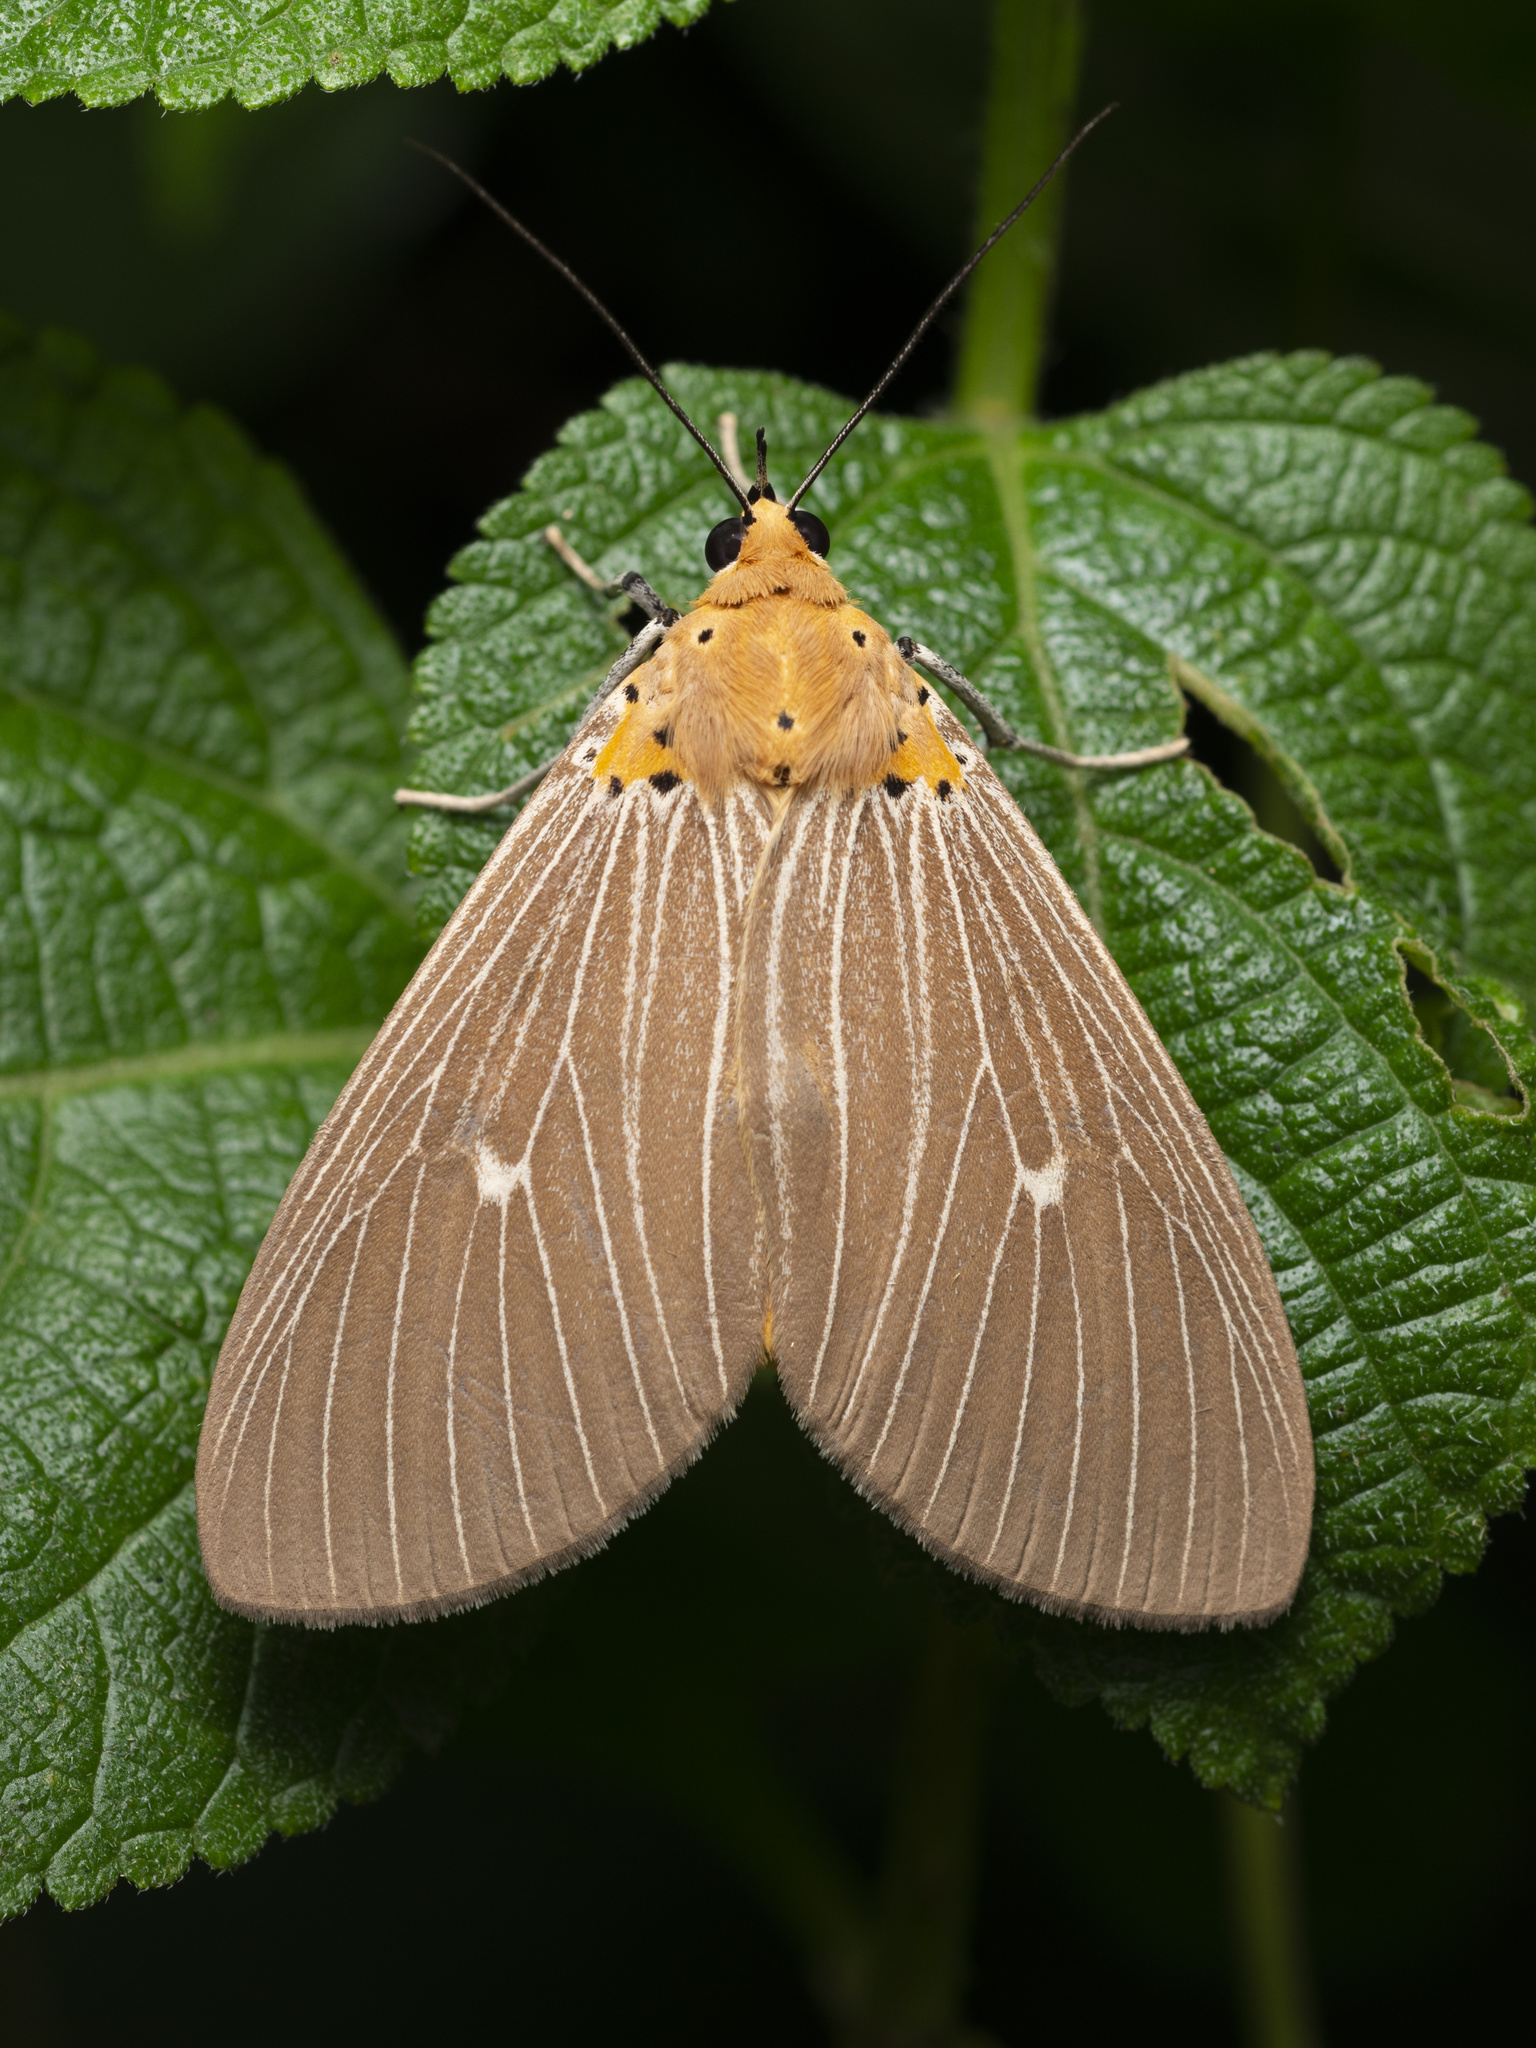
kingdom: Animalia
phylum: Arthropoda
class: Insecta
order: Lepidoptera
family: Erebidae
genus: Asota
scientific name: Asota caricae
